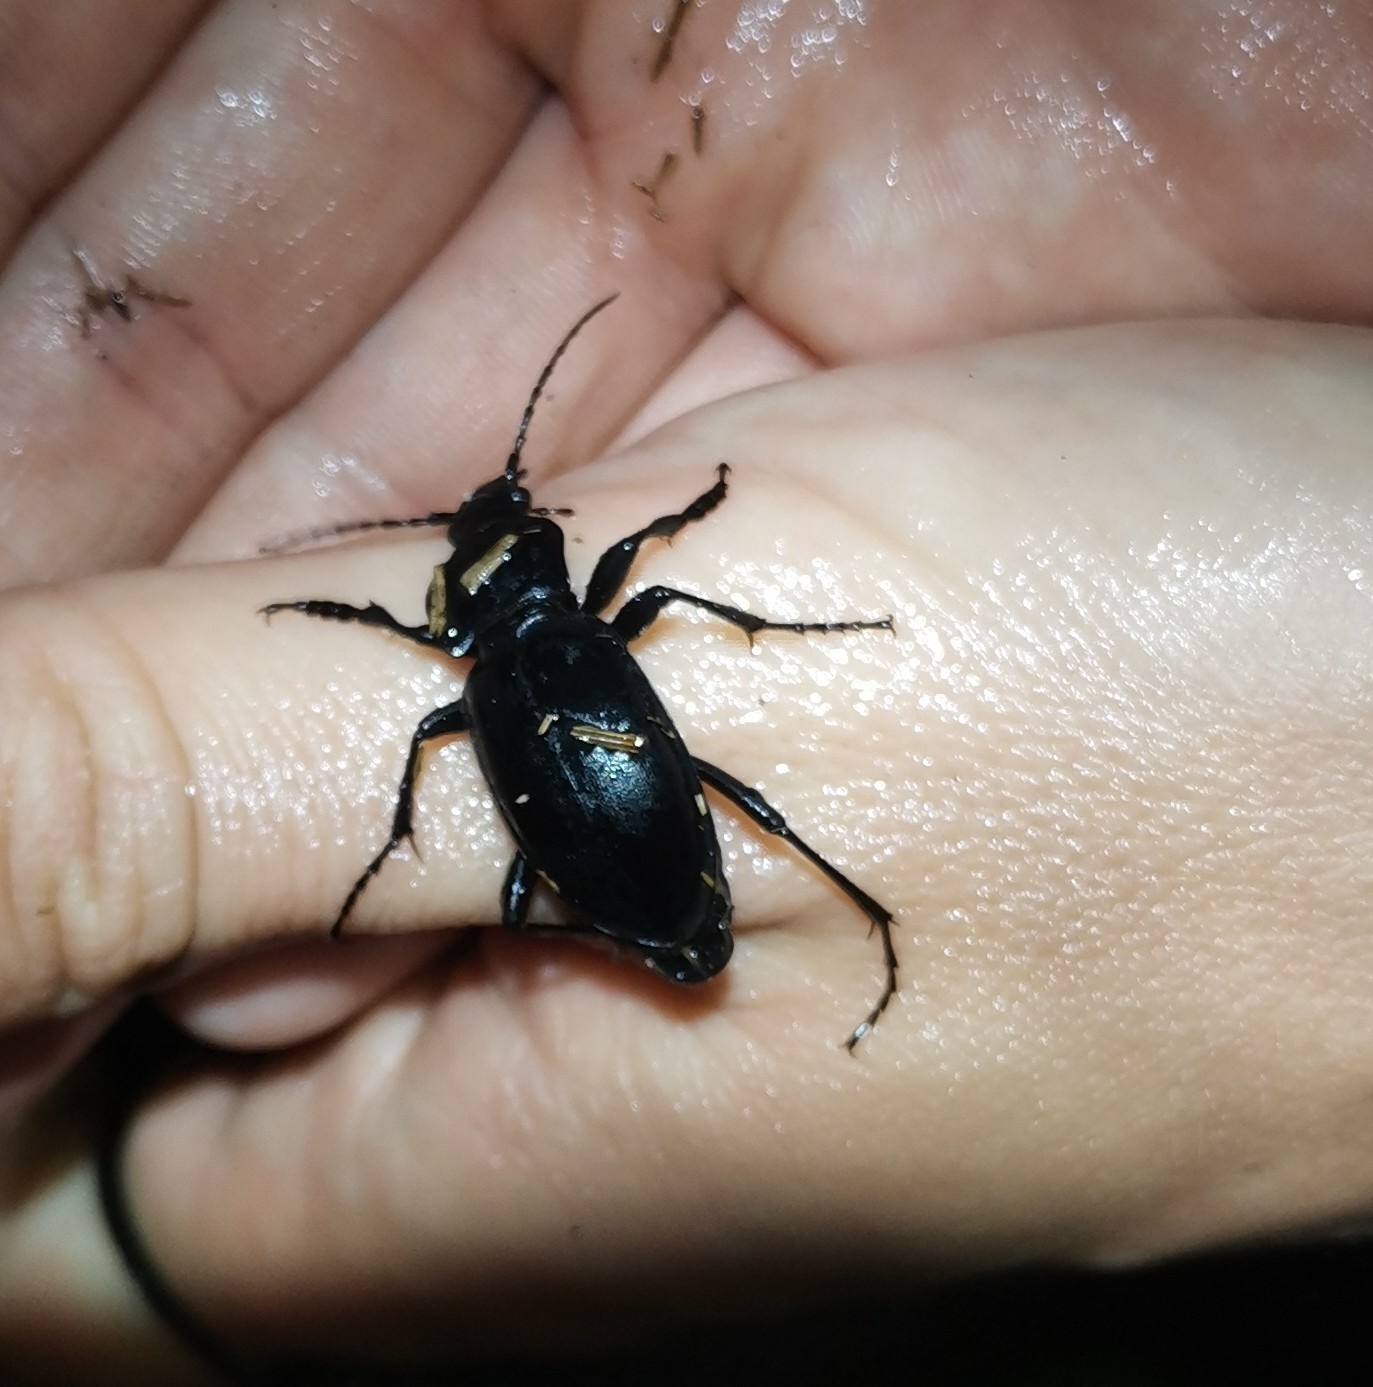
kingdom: Animalia
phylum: Arthropoda
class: Insecta
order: Coleoptera
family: Carabidae
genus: Carabus
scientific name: Carabus
